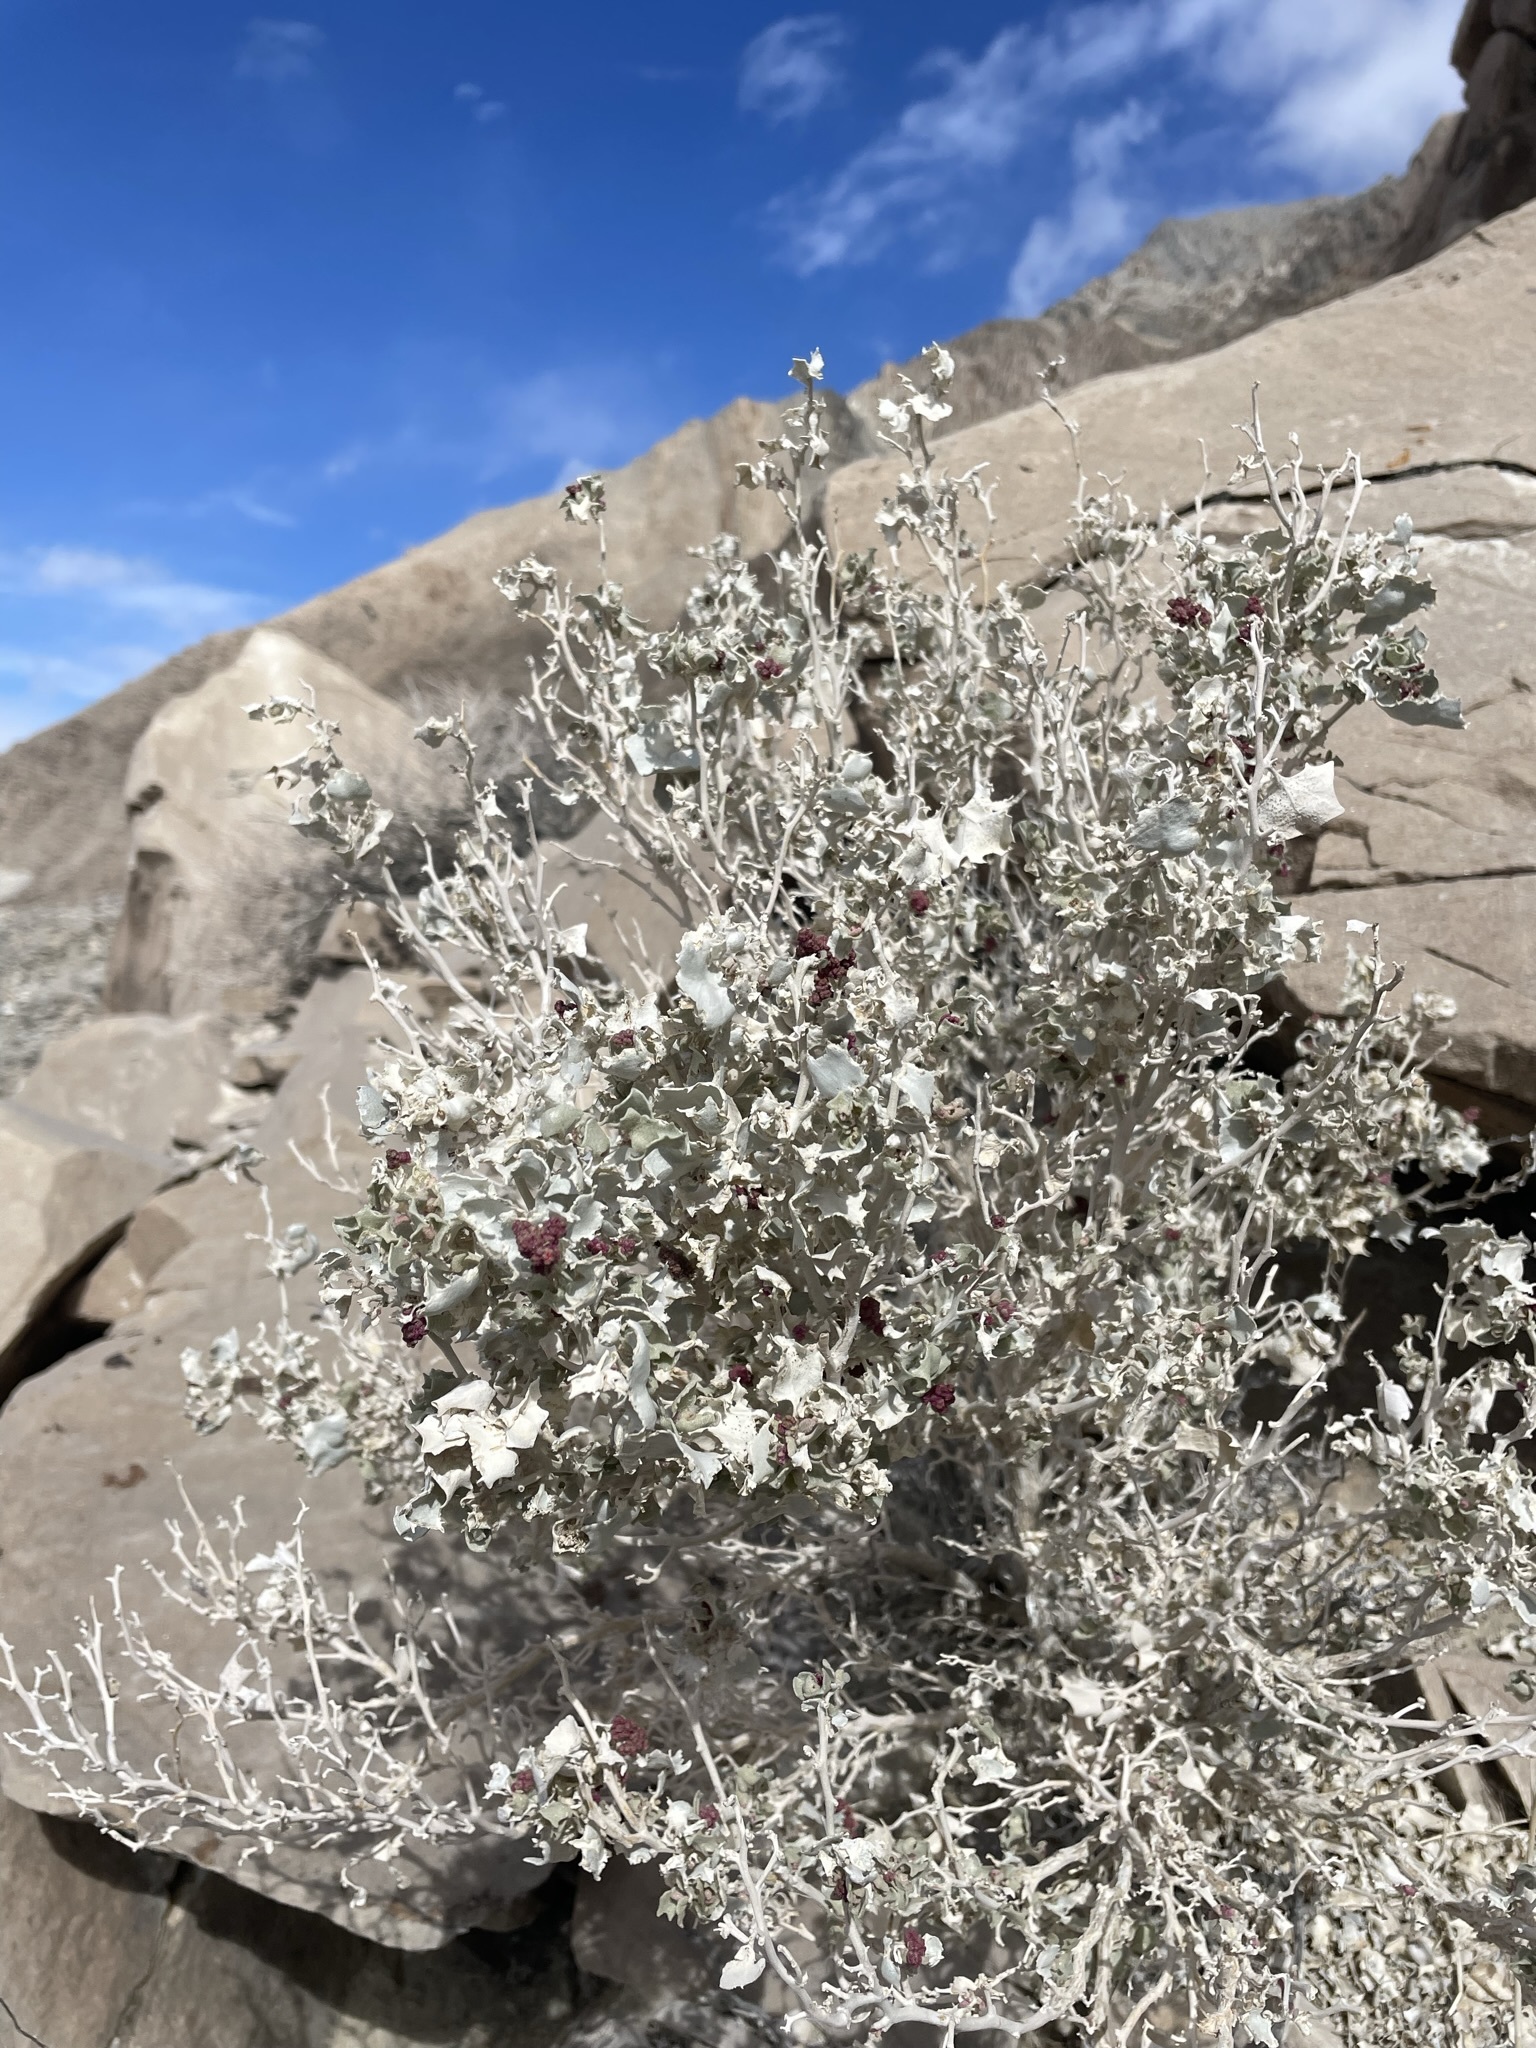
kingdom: Plantae
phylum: Tracheophyta
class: Magnoliopsida
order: Caryophyllales
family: Amaranthaceae
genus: Atriplex
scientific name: Atriplex hymenelytra
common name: Desert-holly
